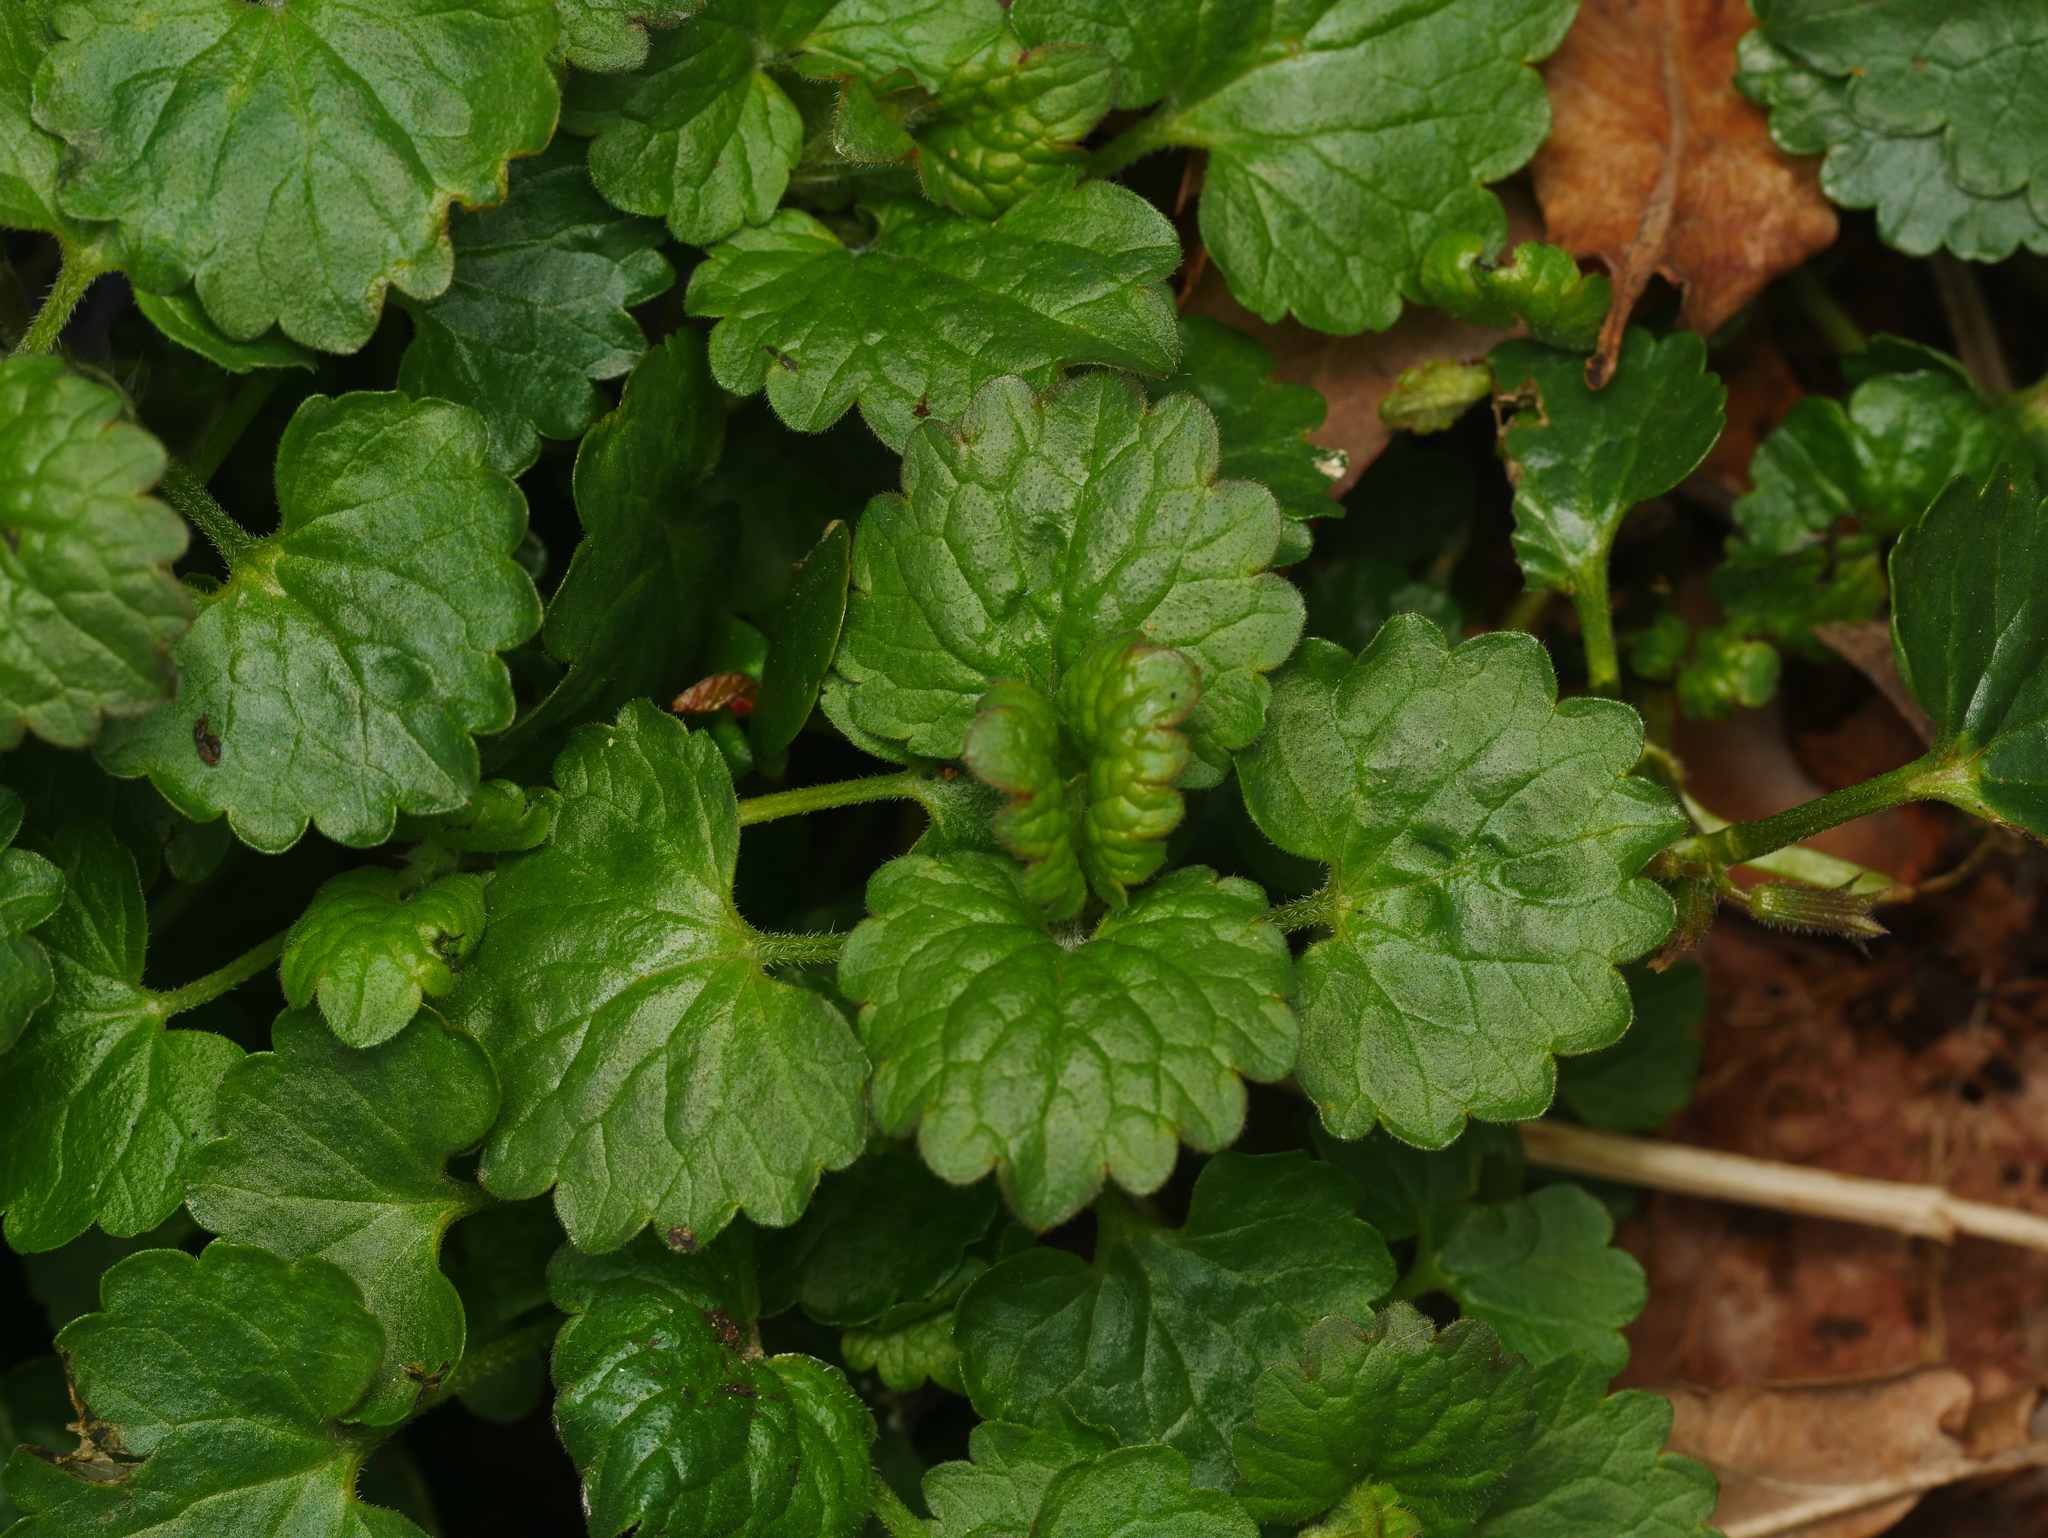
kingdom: Plantae
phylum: Tracheophyta
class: Magnoliopsida
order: Lamiales
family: Lamiaceae
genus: Glechoma
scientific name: Glechoma hederacea
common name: Ground ivy
